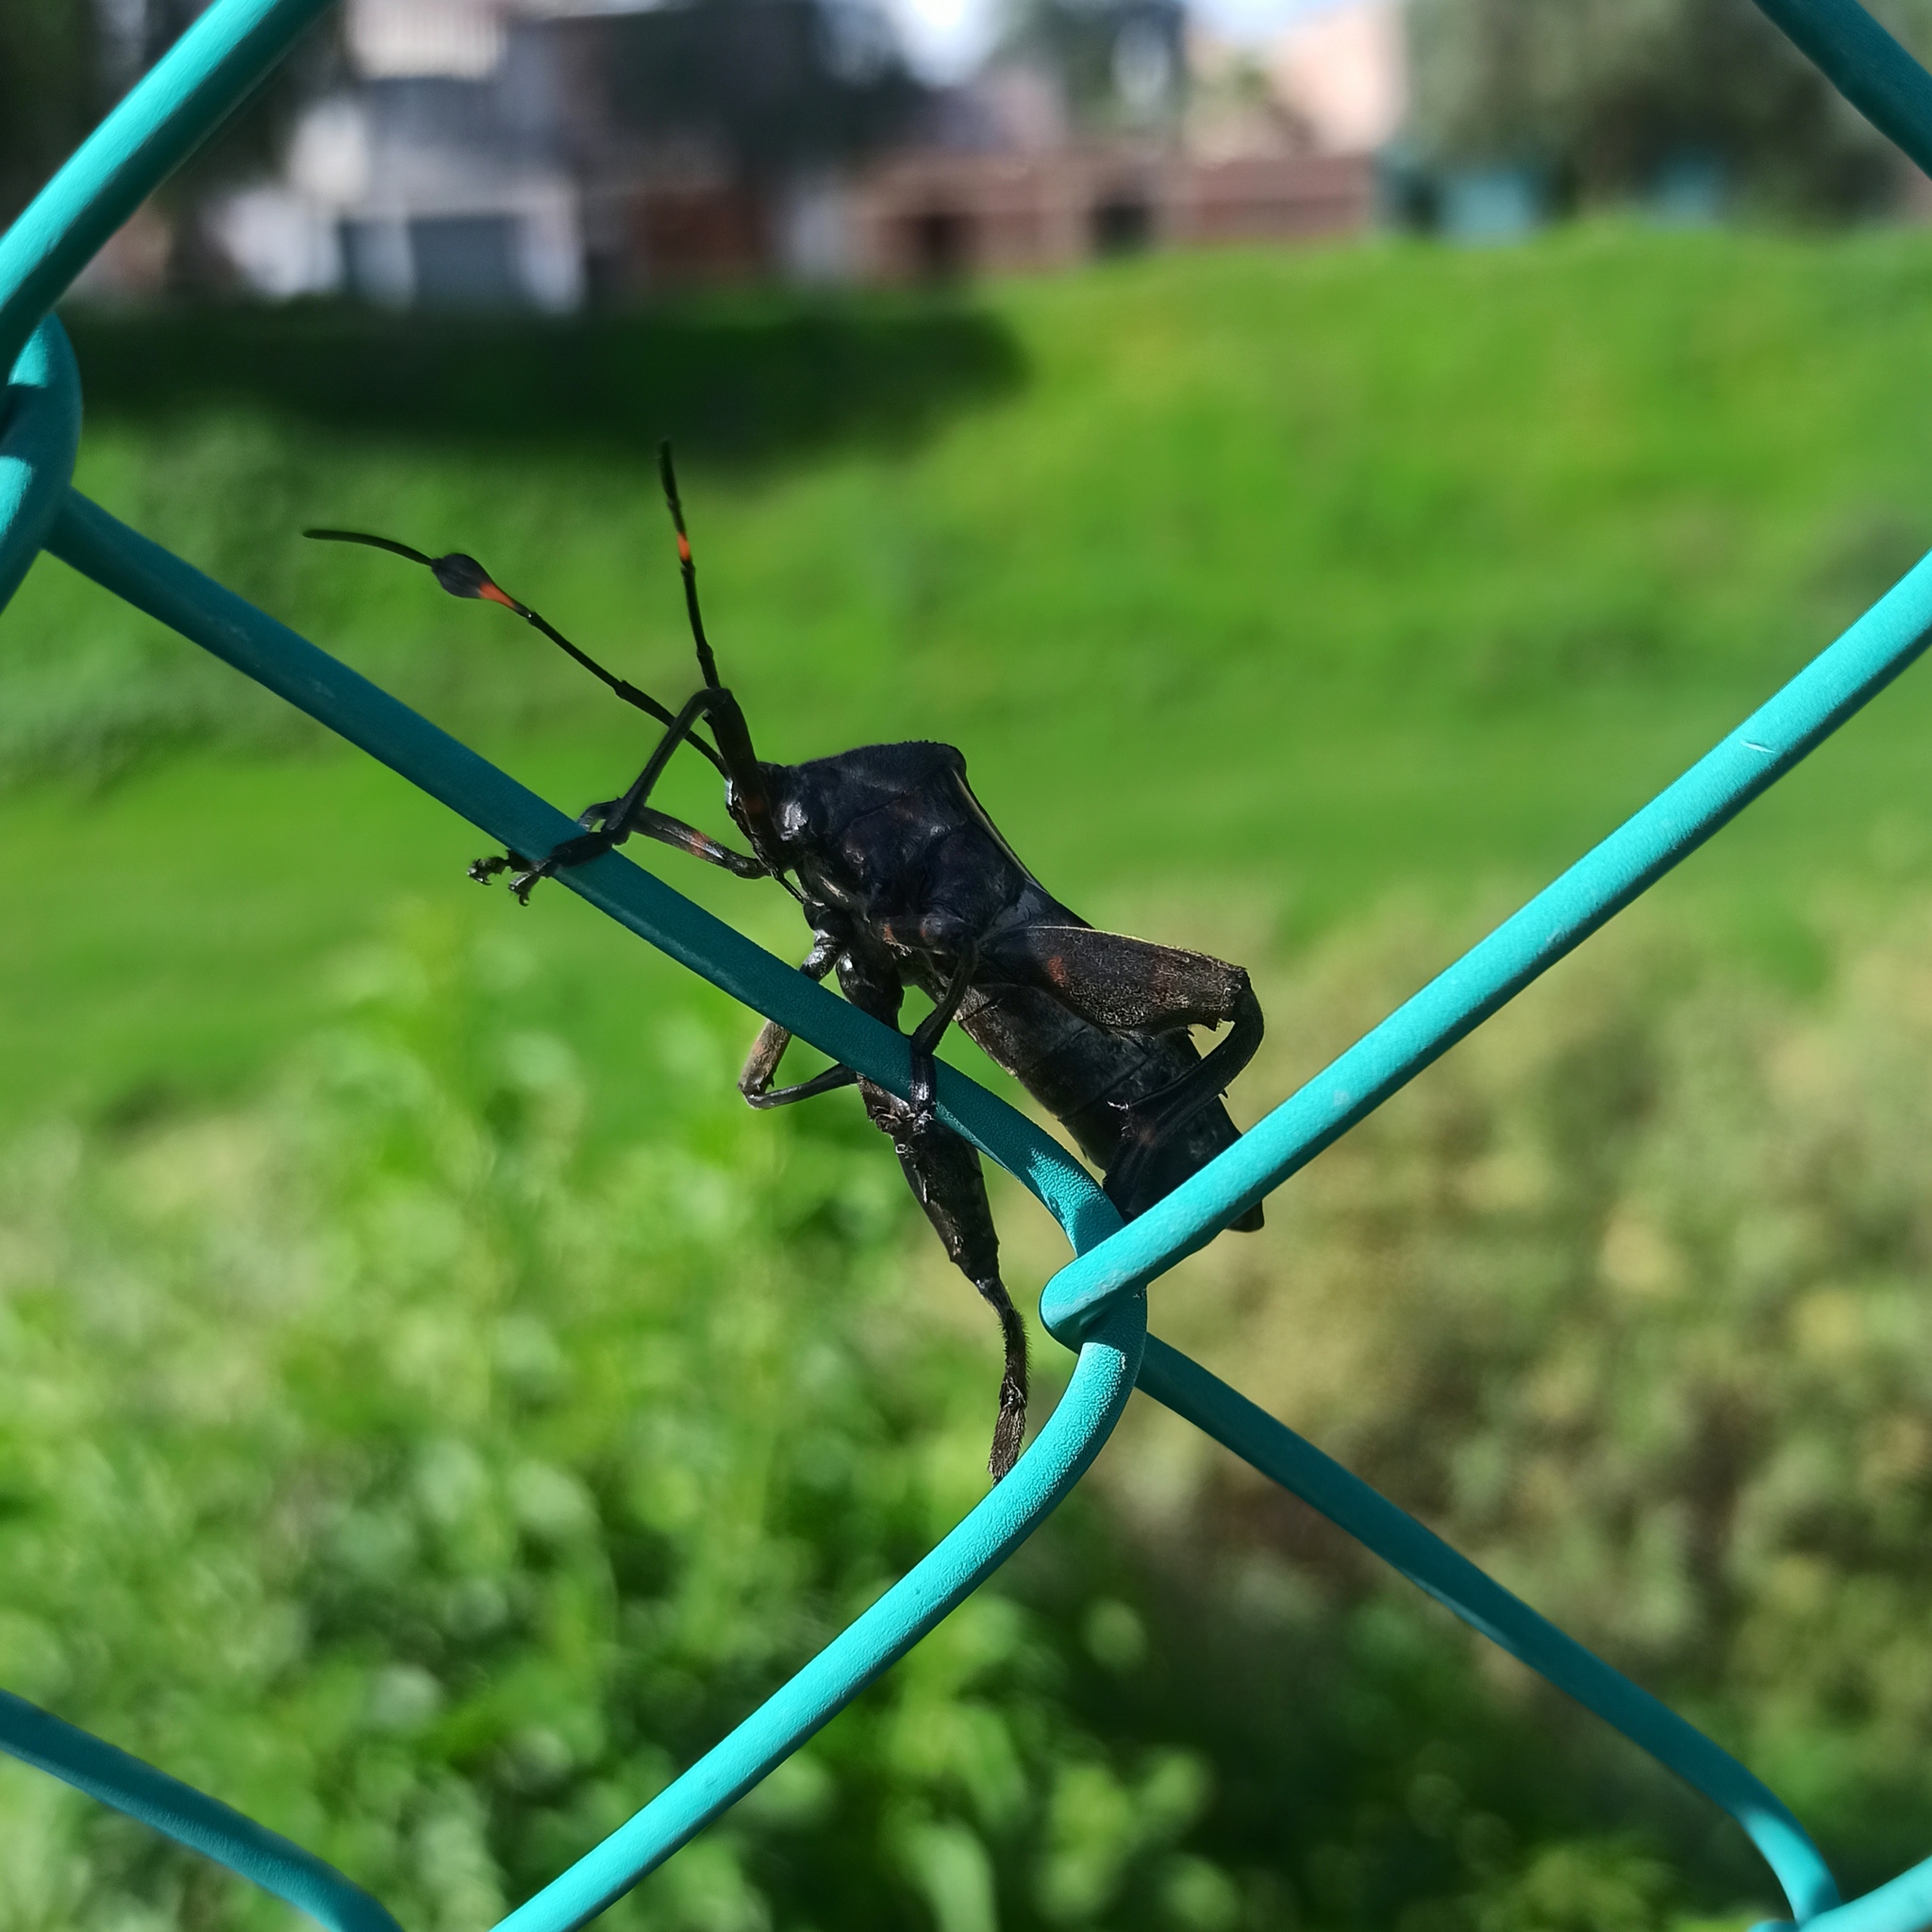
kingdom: Animalia
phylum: Arthropoda
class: Insecta
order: Hemiptera
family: Coreidae
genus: Thasus
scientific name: Thasus
